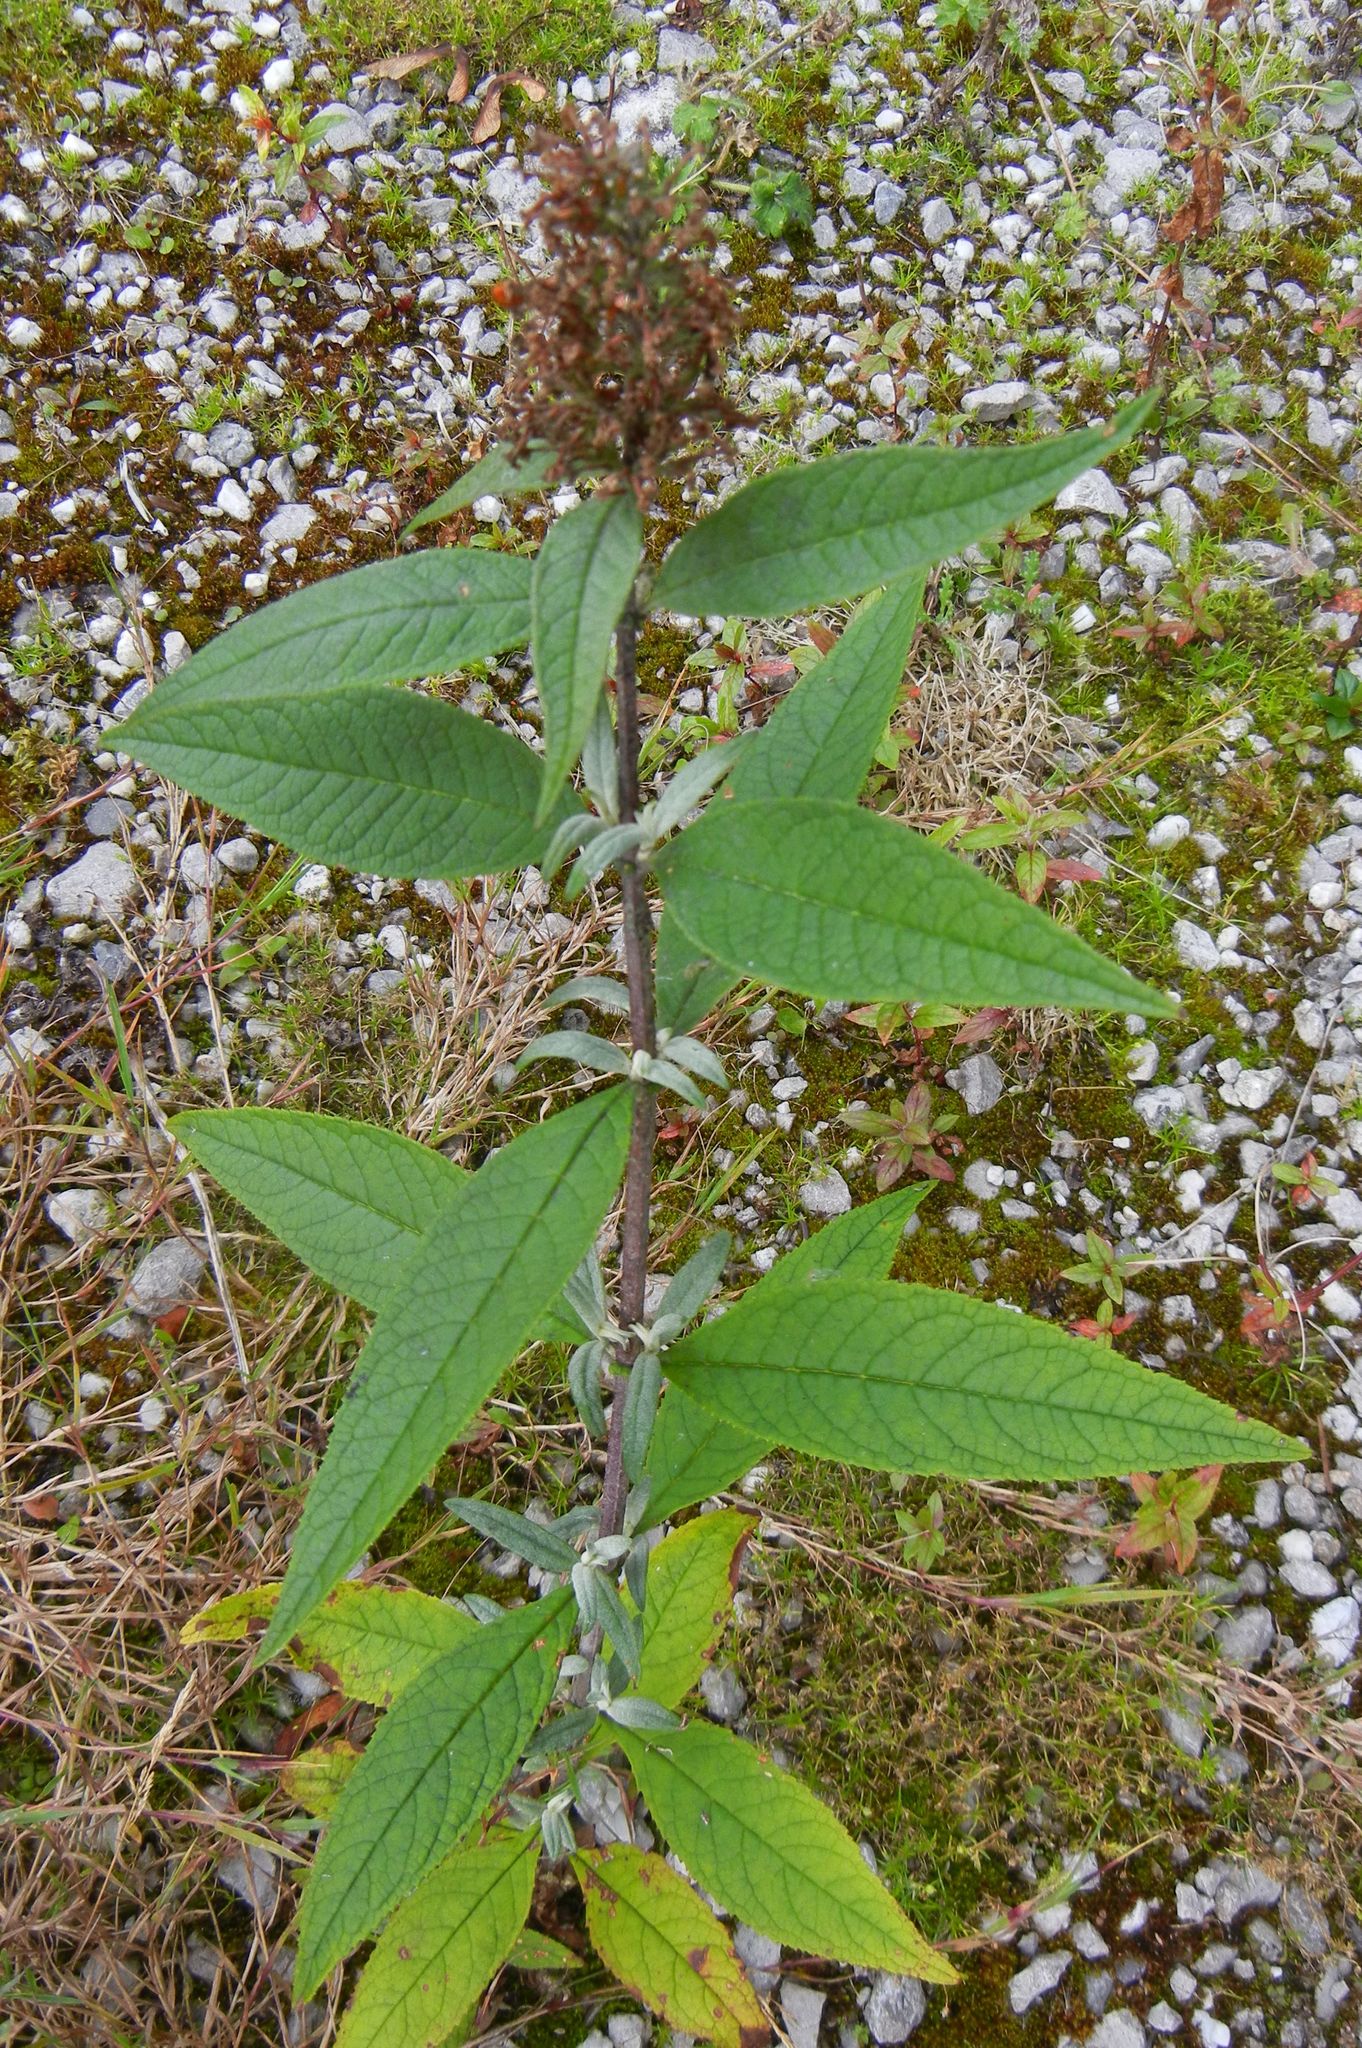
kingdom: Plantae
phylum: Tracheophyta
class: Magnoliopsida
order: Lamiales
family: Scrophulariaceae
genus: Buddleja
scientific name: Buddleja davidii
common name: Butterfly-bush
